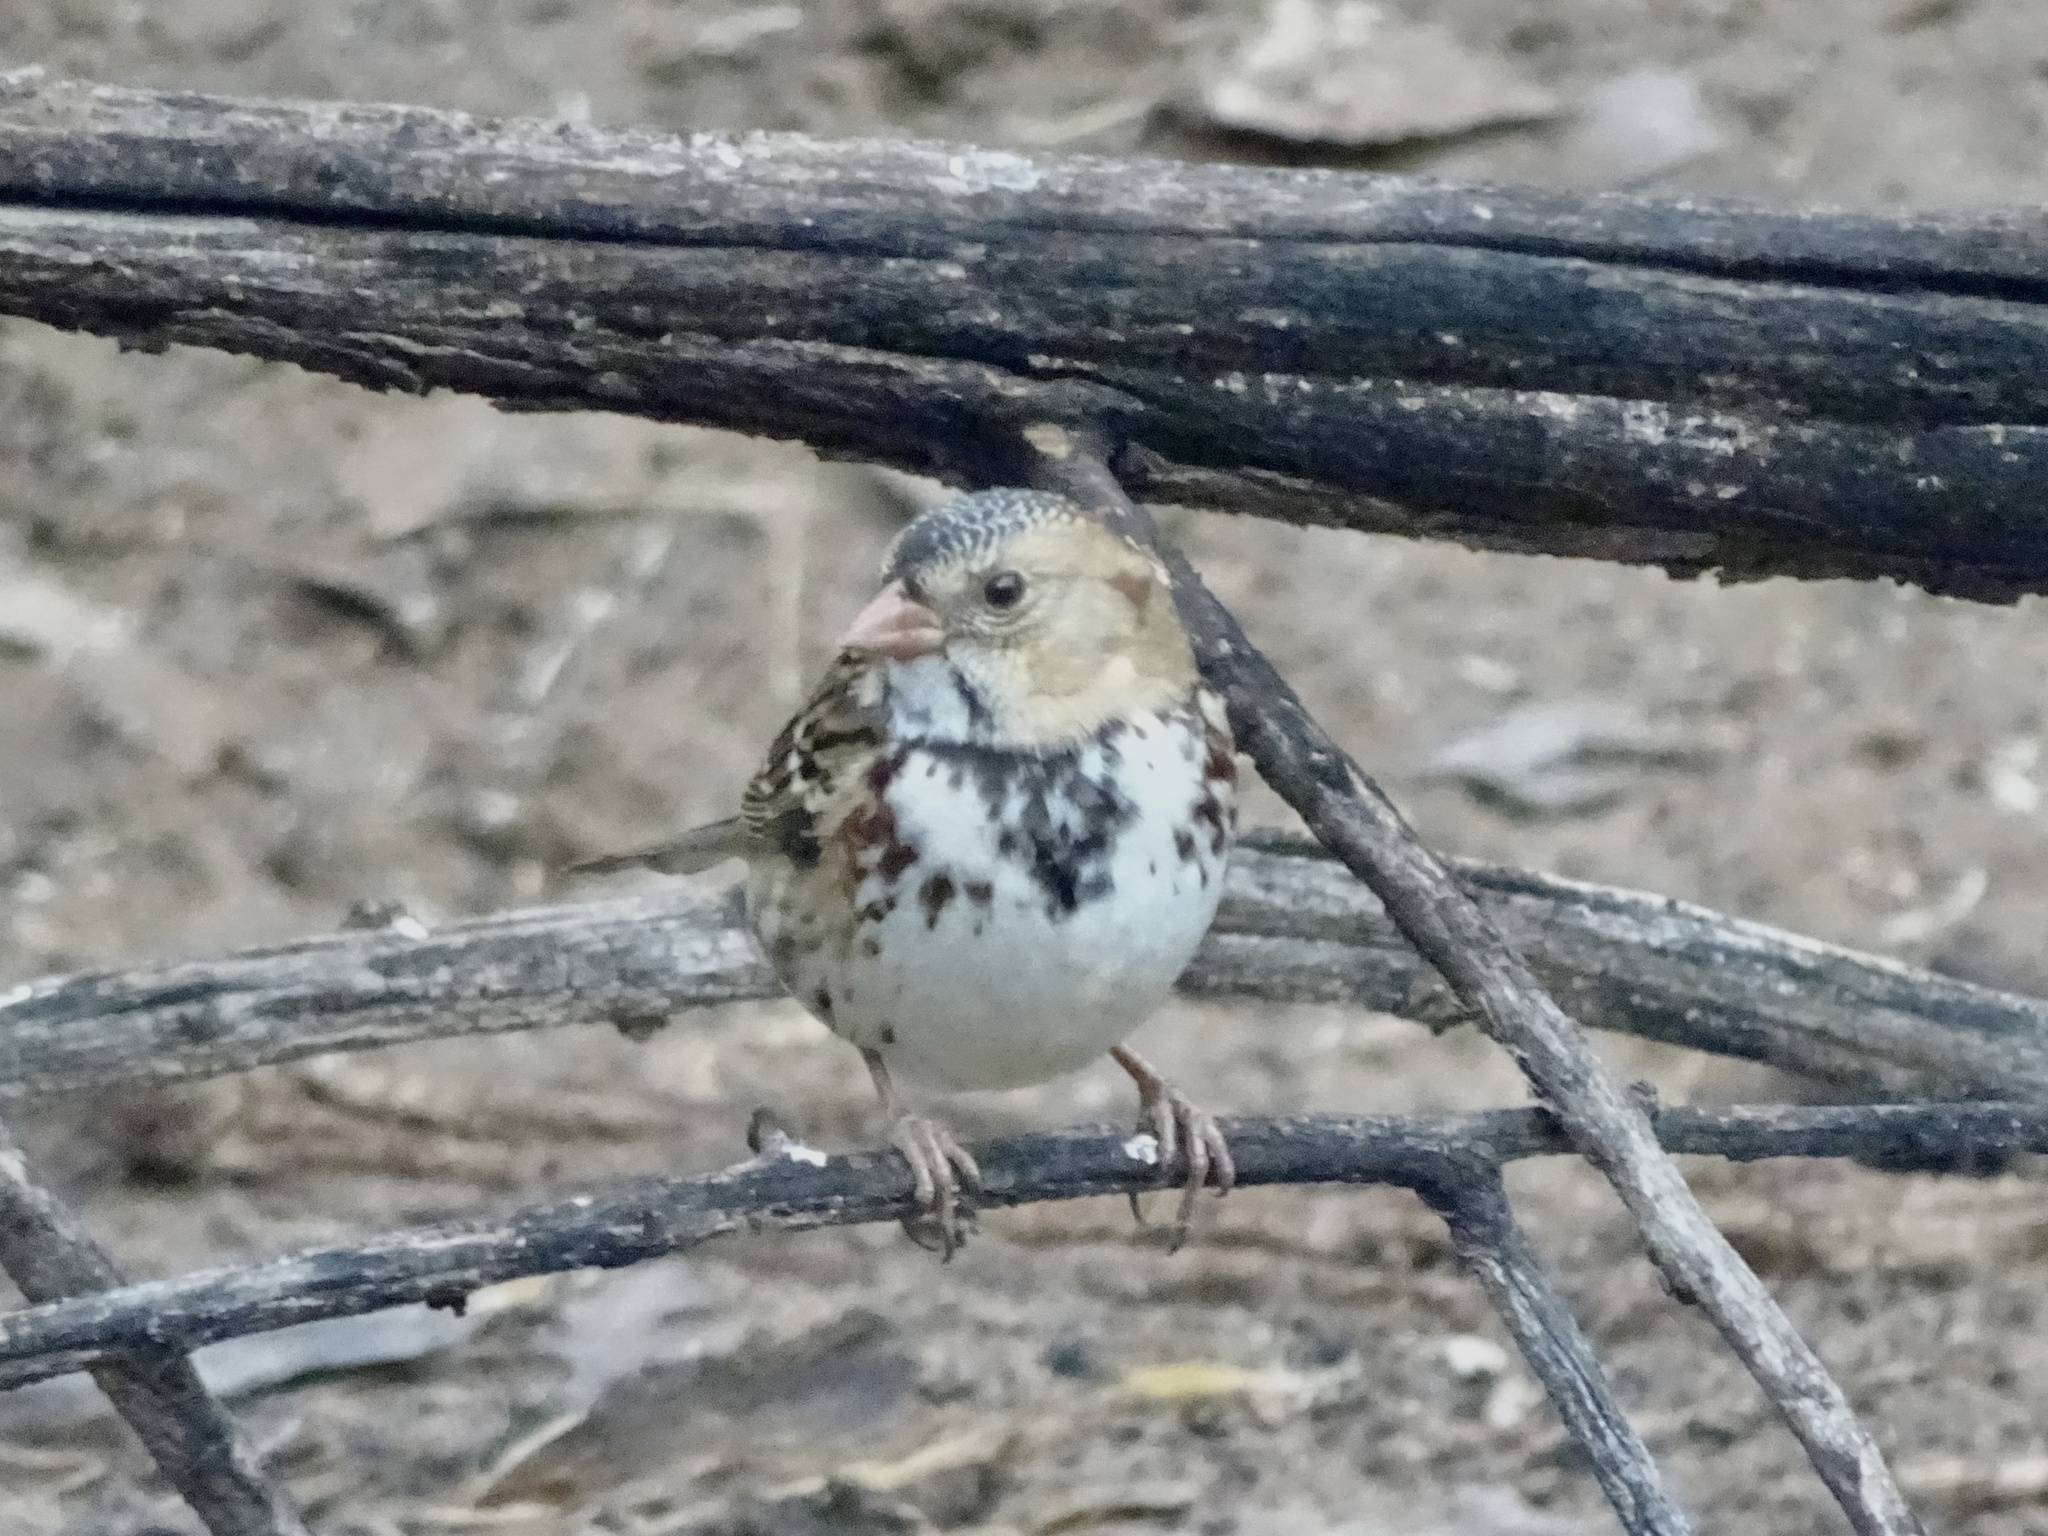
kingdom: Animalia
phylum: Chordata
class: Aves
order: Passeriformes
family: Passerellidae
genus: Zonotrichia
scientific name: Zonotrichia querula
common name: Harris's sparrow
